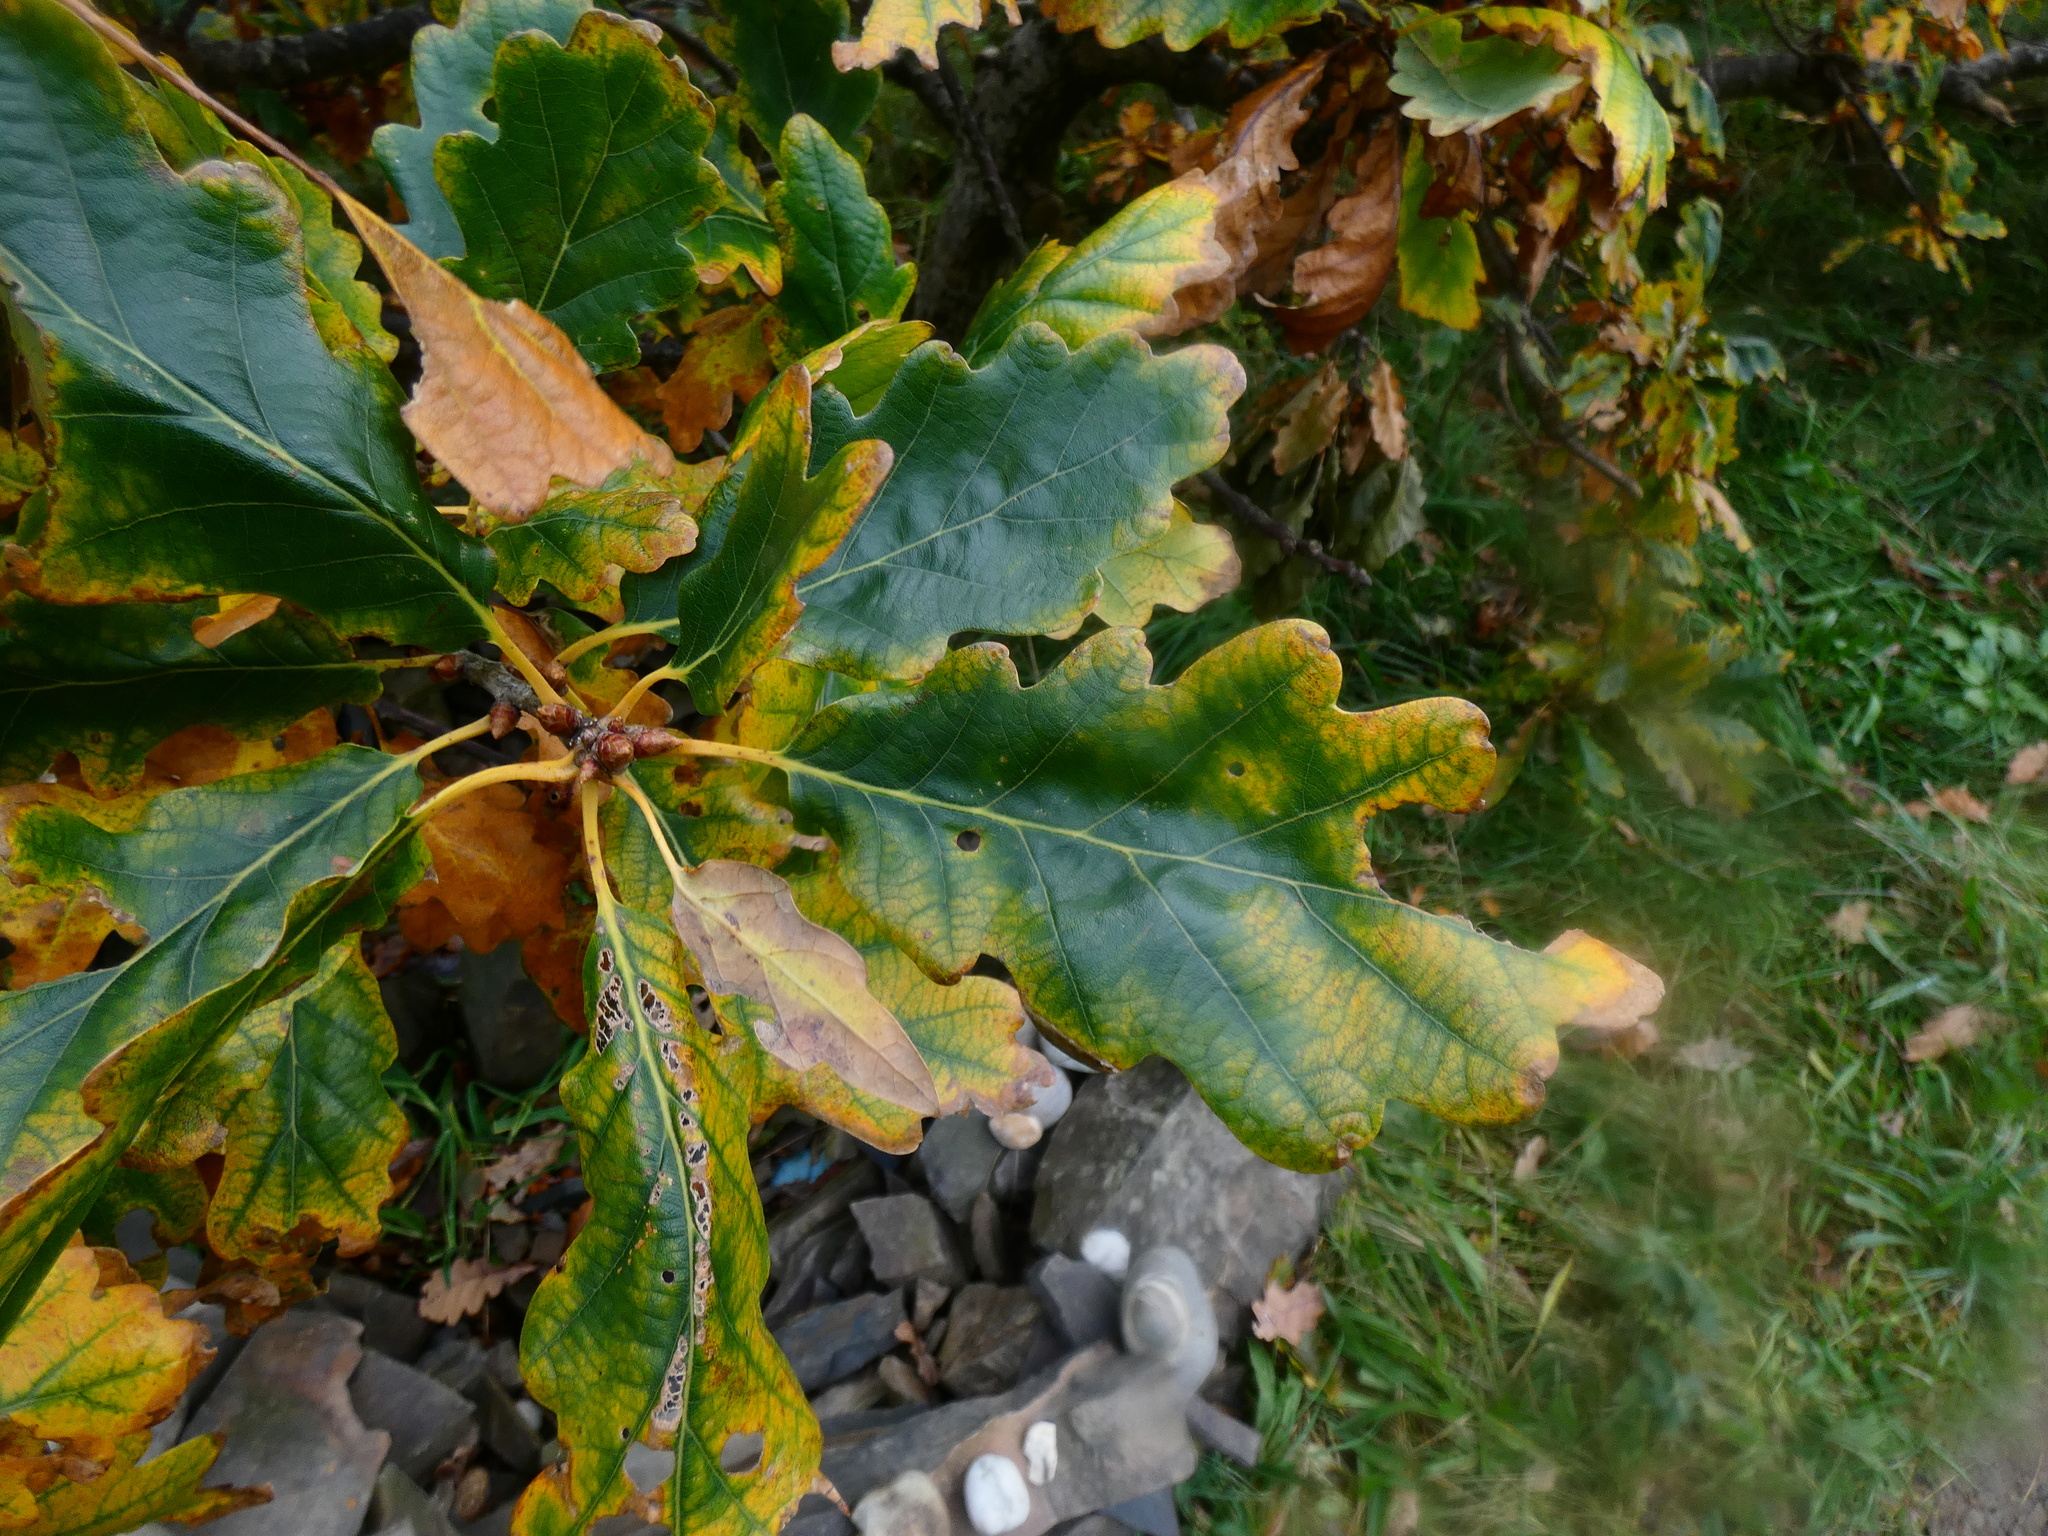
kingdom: Plantae
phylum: Tracheophyta
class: Magnoliopsida
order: Fagales
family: Fagaceae
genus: Quercus
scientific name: Quercus petraea
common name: Sessile oak
